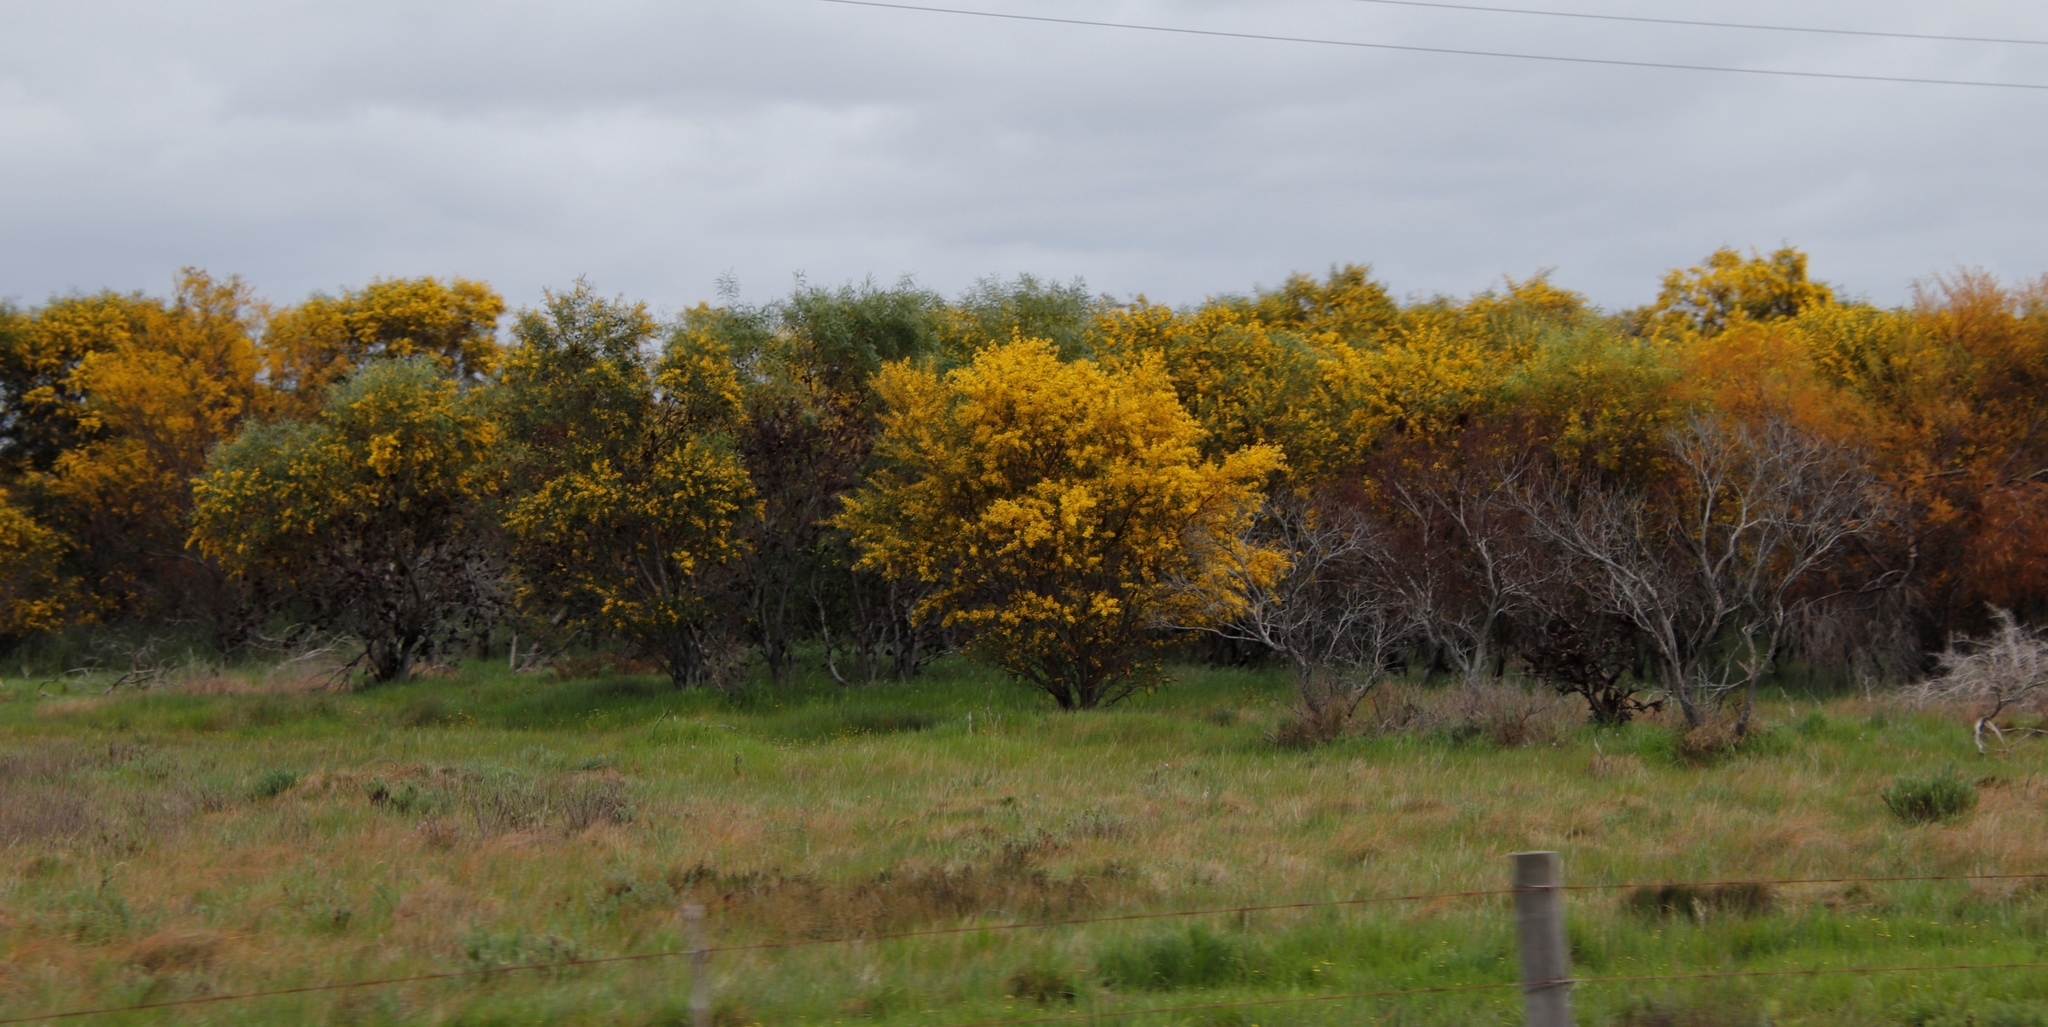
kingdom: Plantae
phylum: Tracheophyta
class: Magnoliopsida
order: Fabales
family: Fabaceae
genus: Acacia
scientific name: Acacia saligna
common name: Orange wattle
